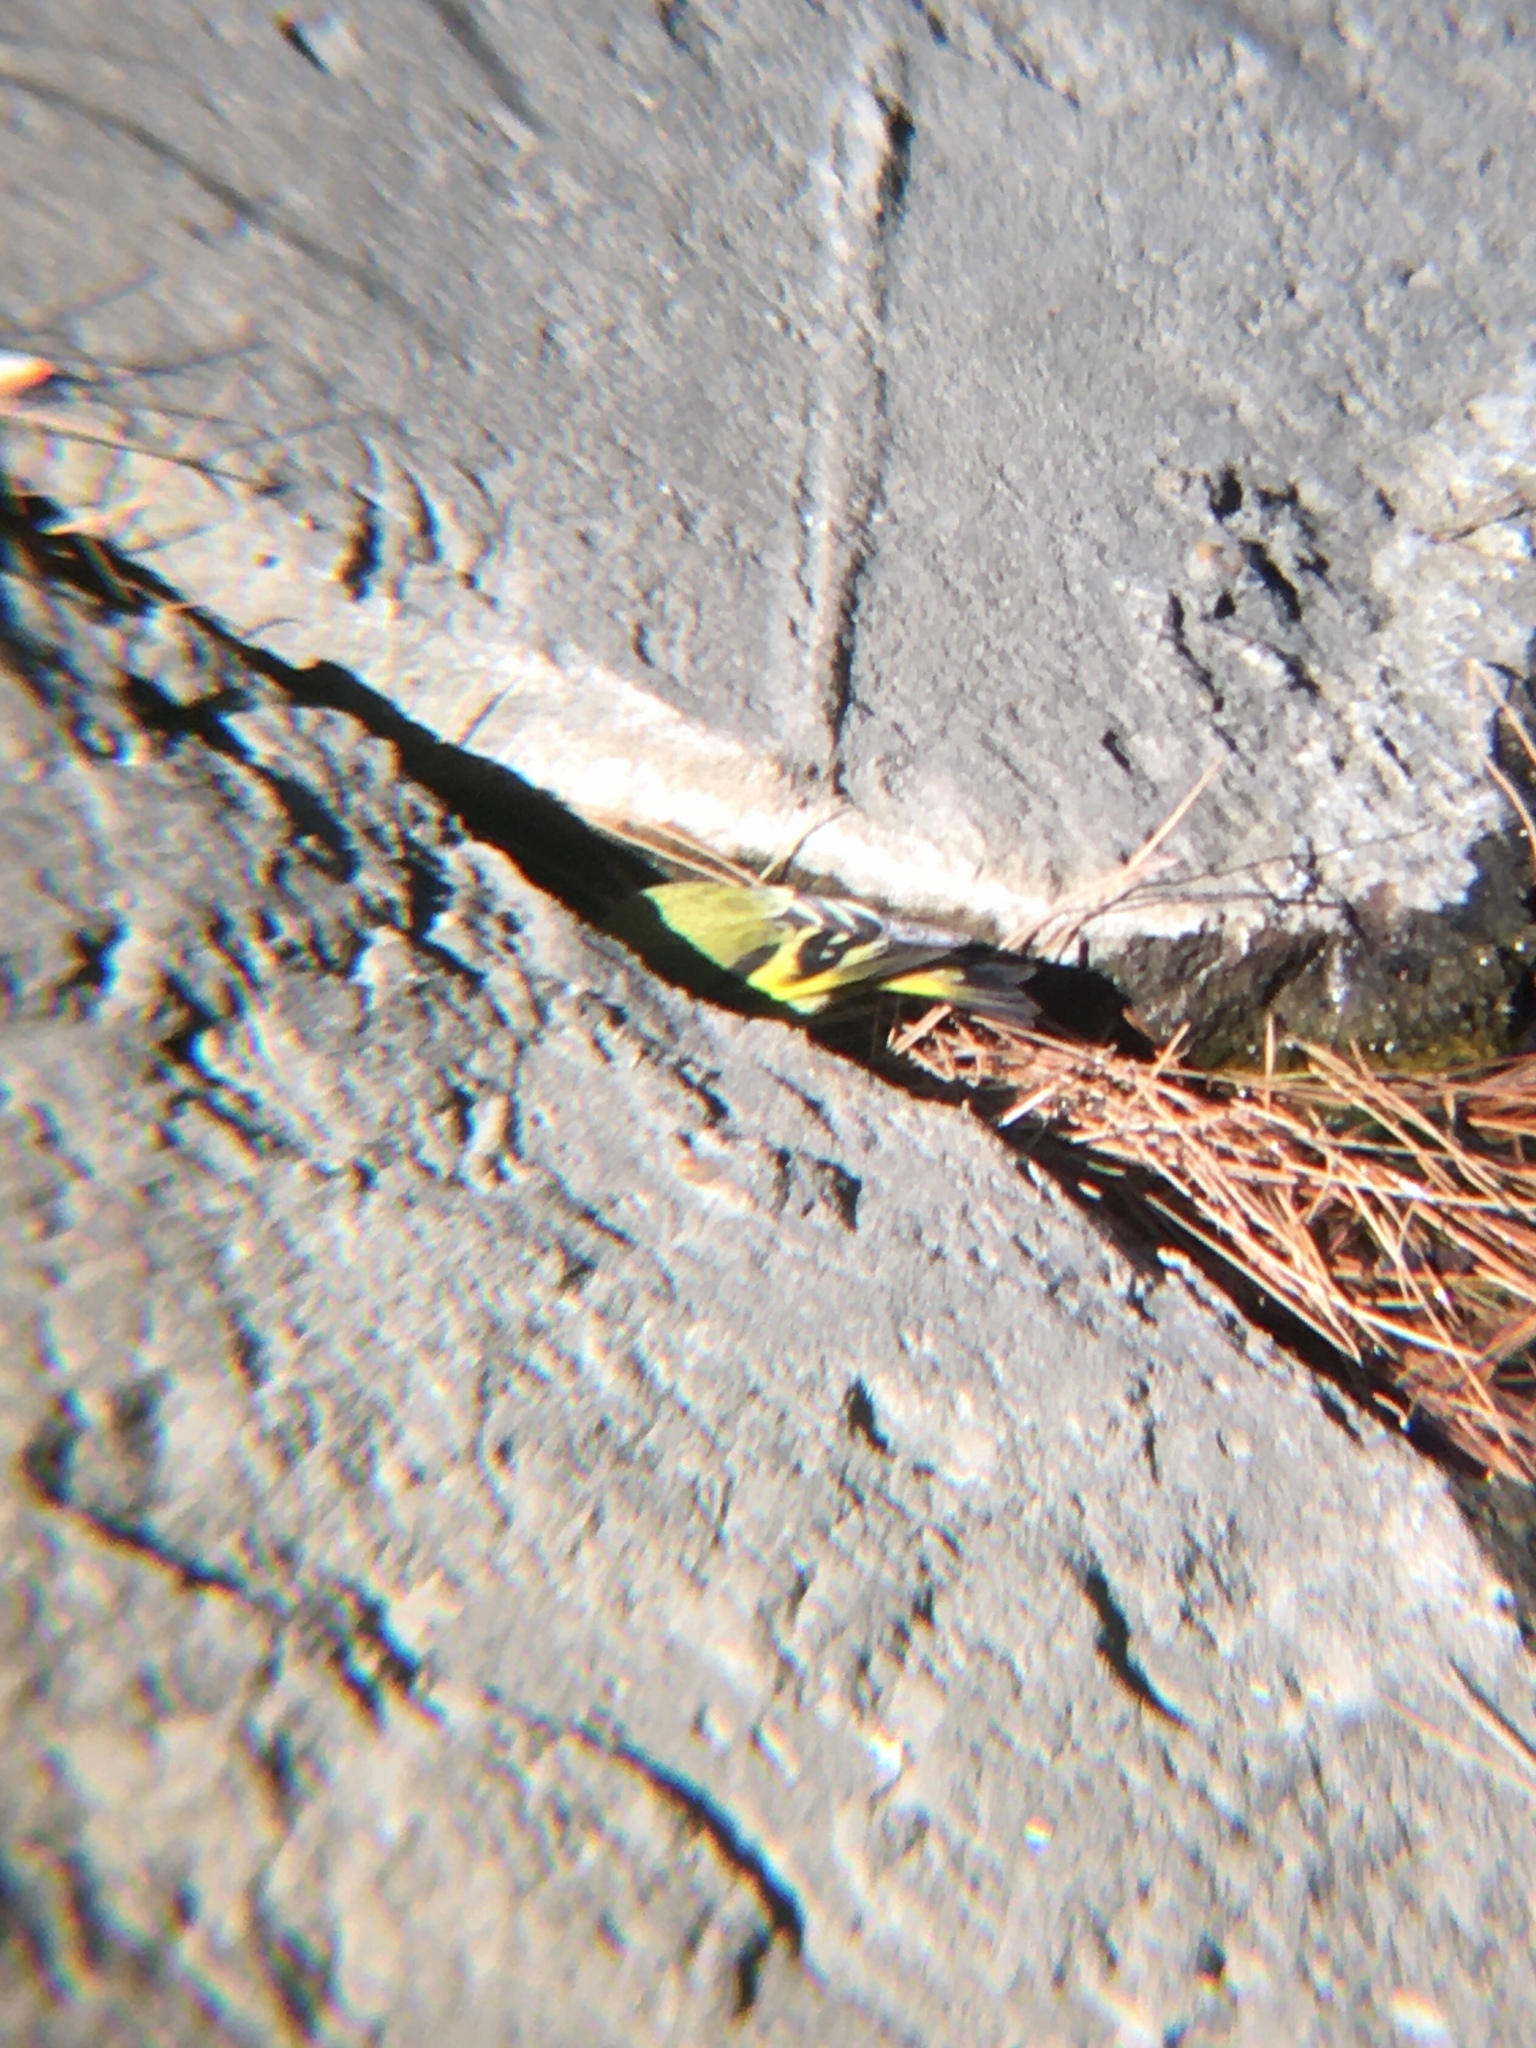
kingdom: Animalia
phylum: Chordata
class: Aves
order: Passeriformes
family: Fringillidae
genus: Spinus
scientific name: Spinus magellanicus
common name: Hooded siskin
